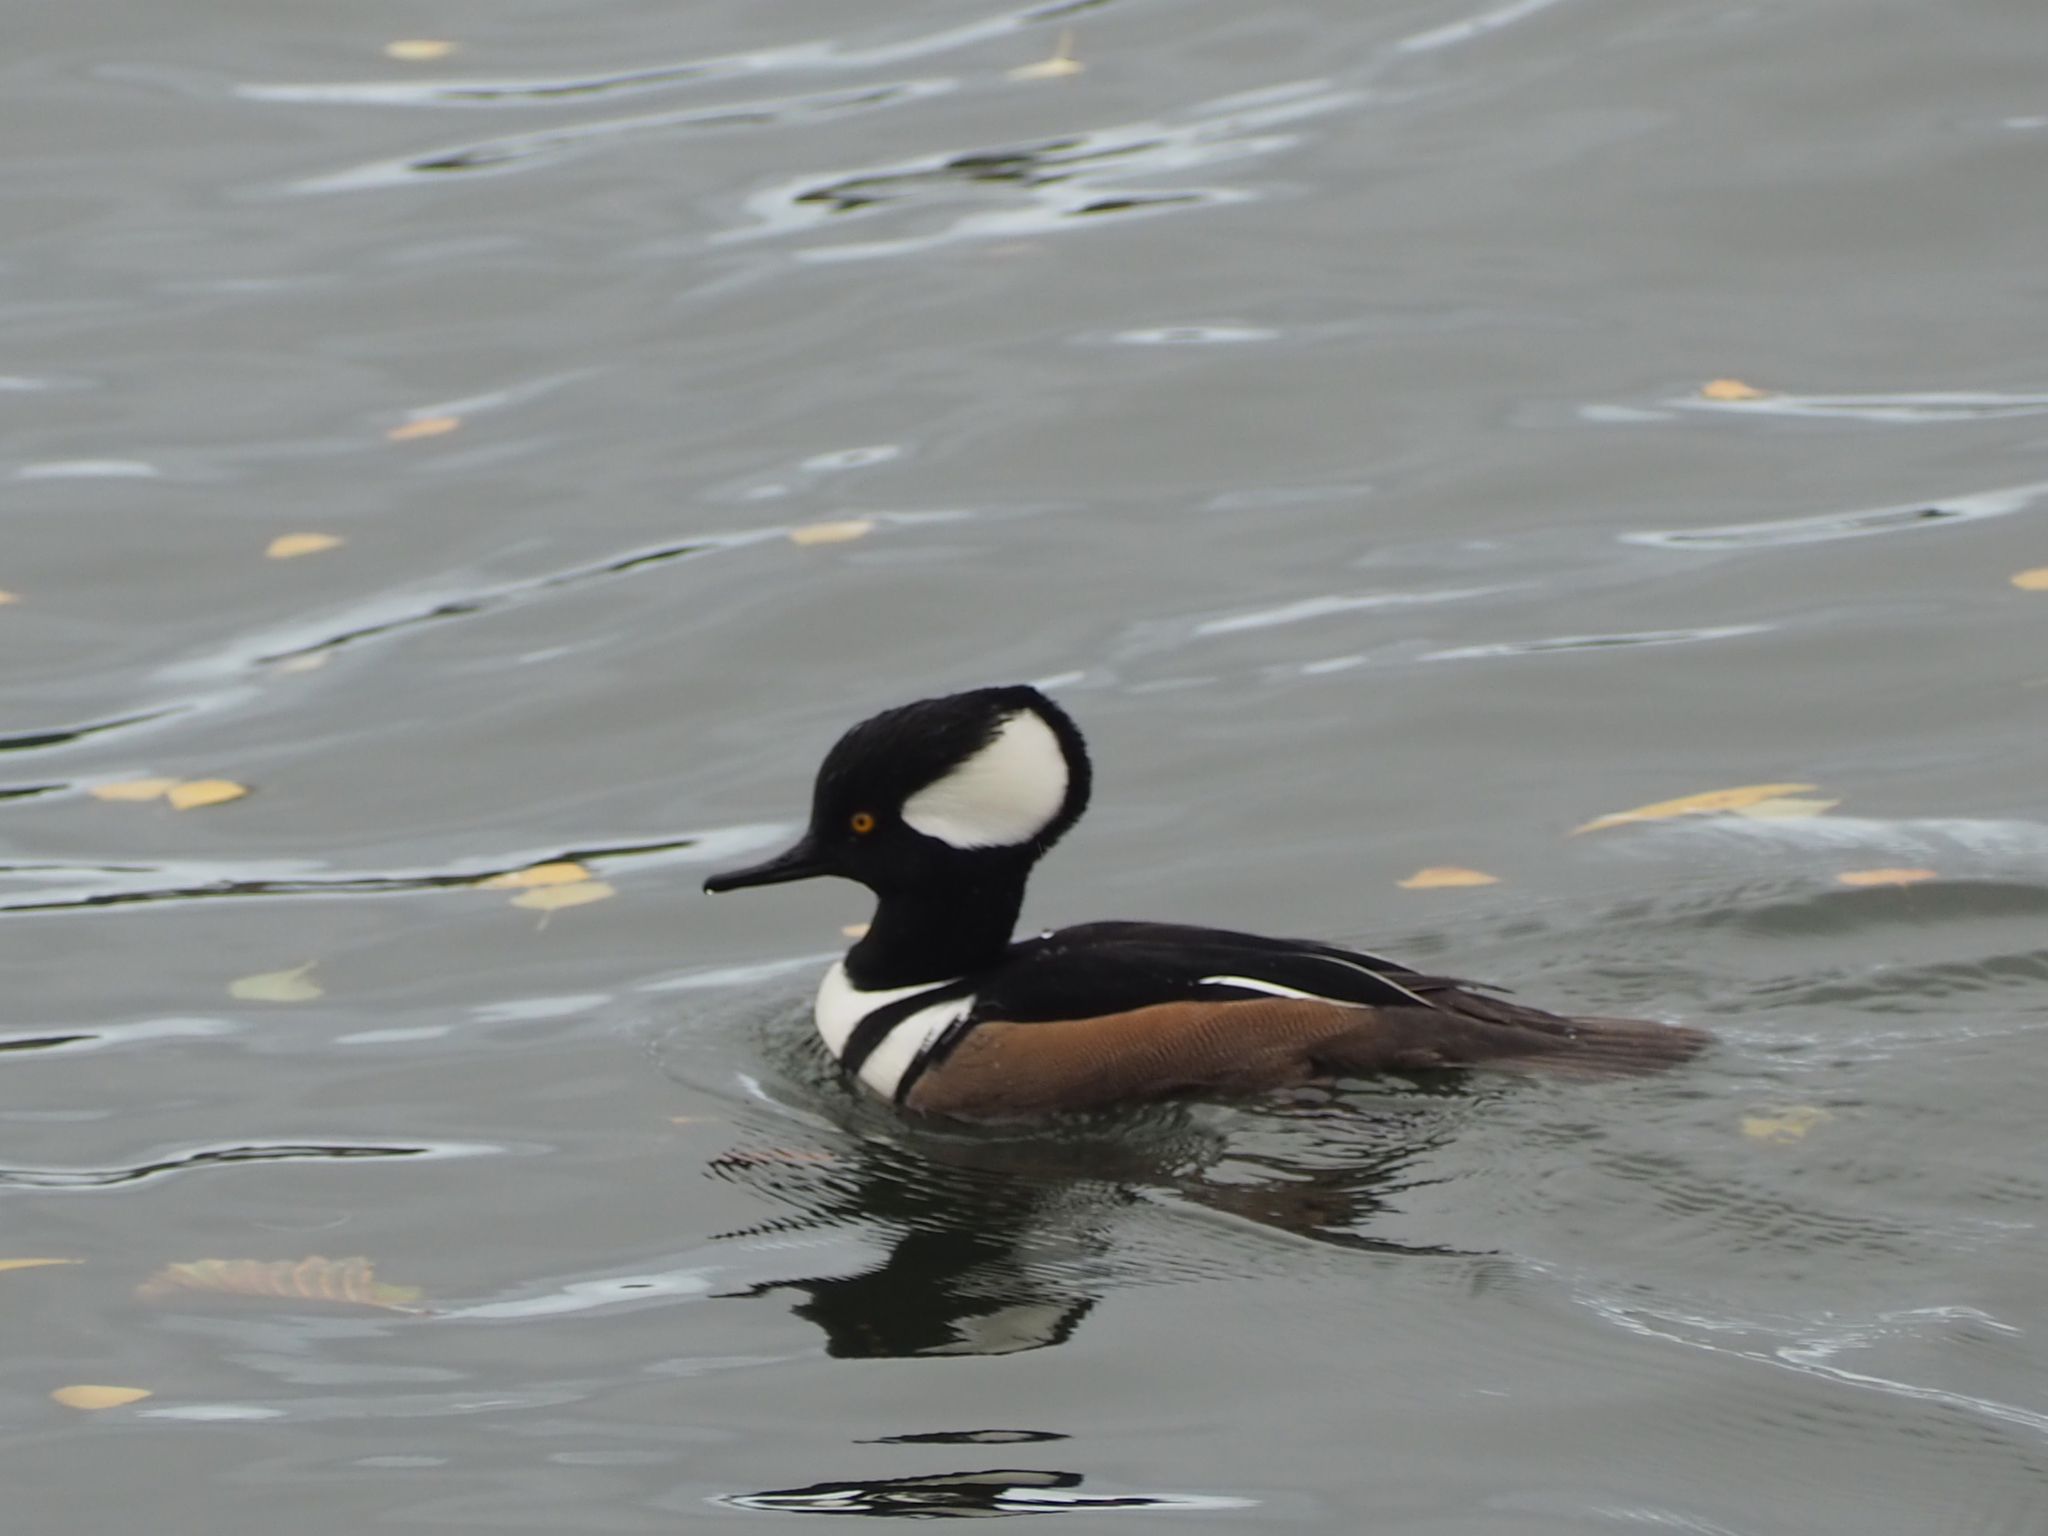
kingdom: Animalia
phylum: Chordata
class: Aves
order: Anseriformes
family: Anatidae
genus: Lophodytes
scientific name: Lophodytes cucullatus
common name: Hooded merganser
